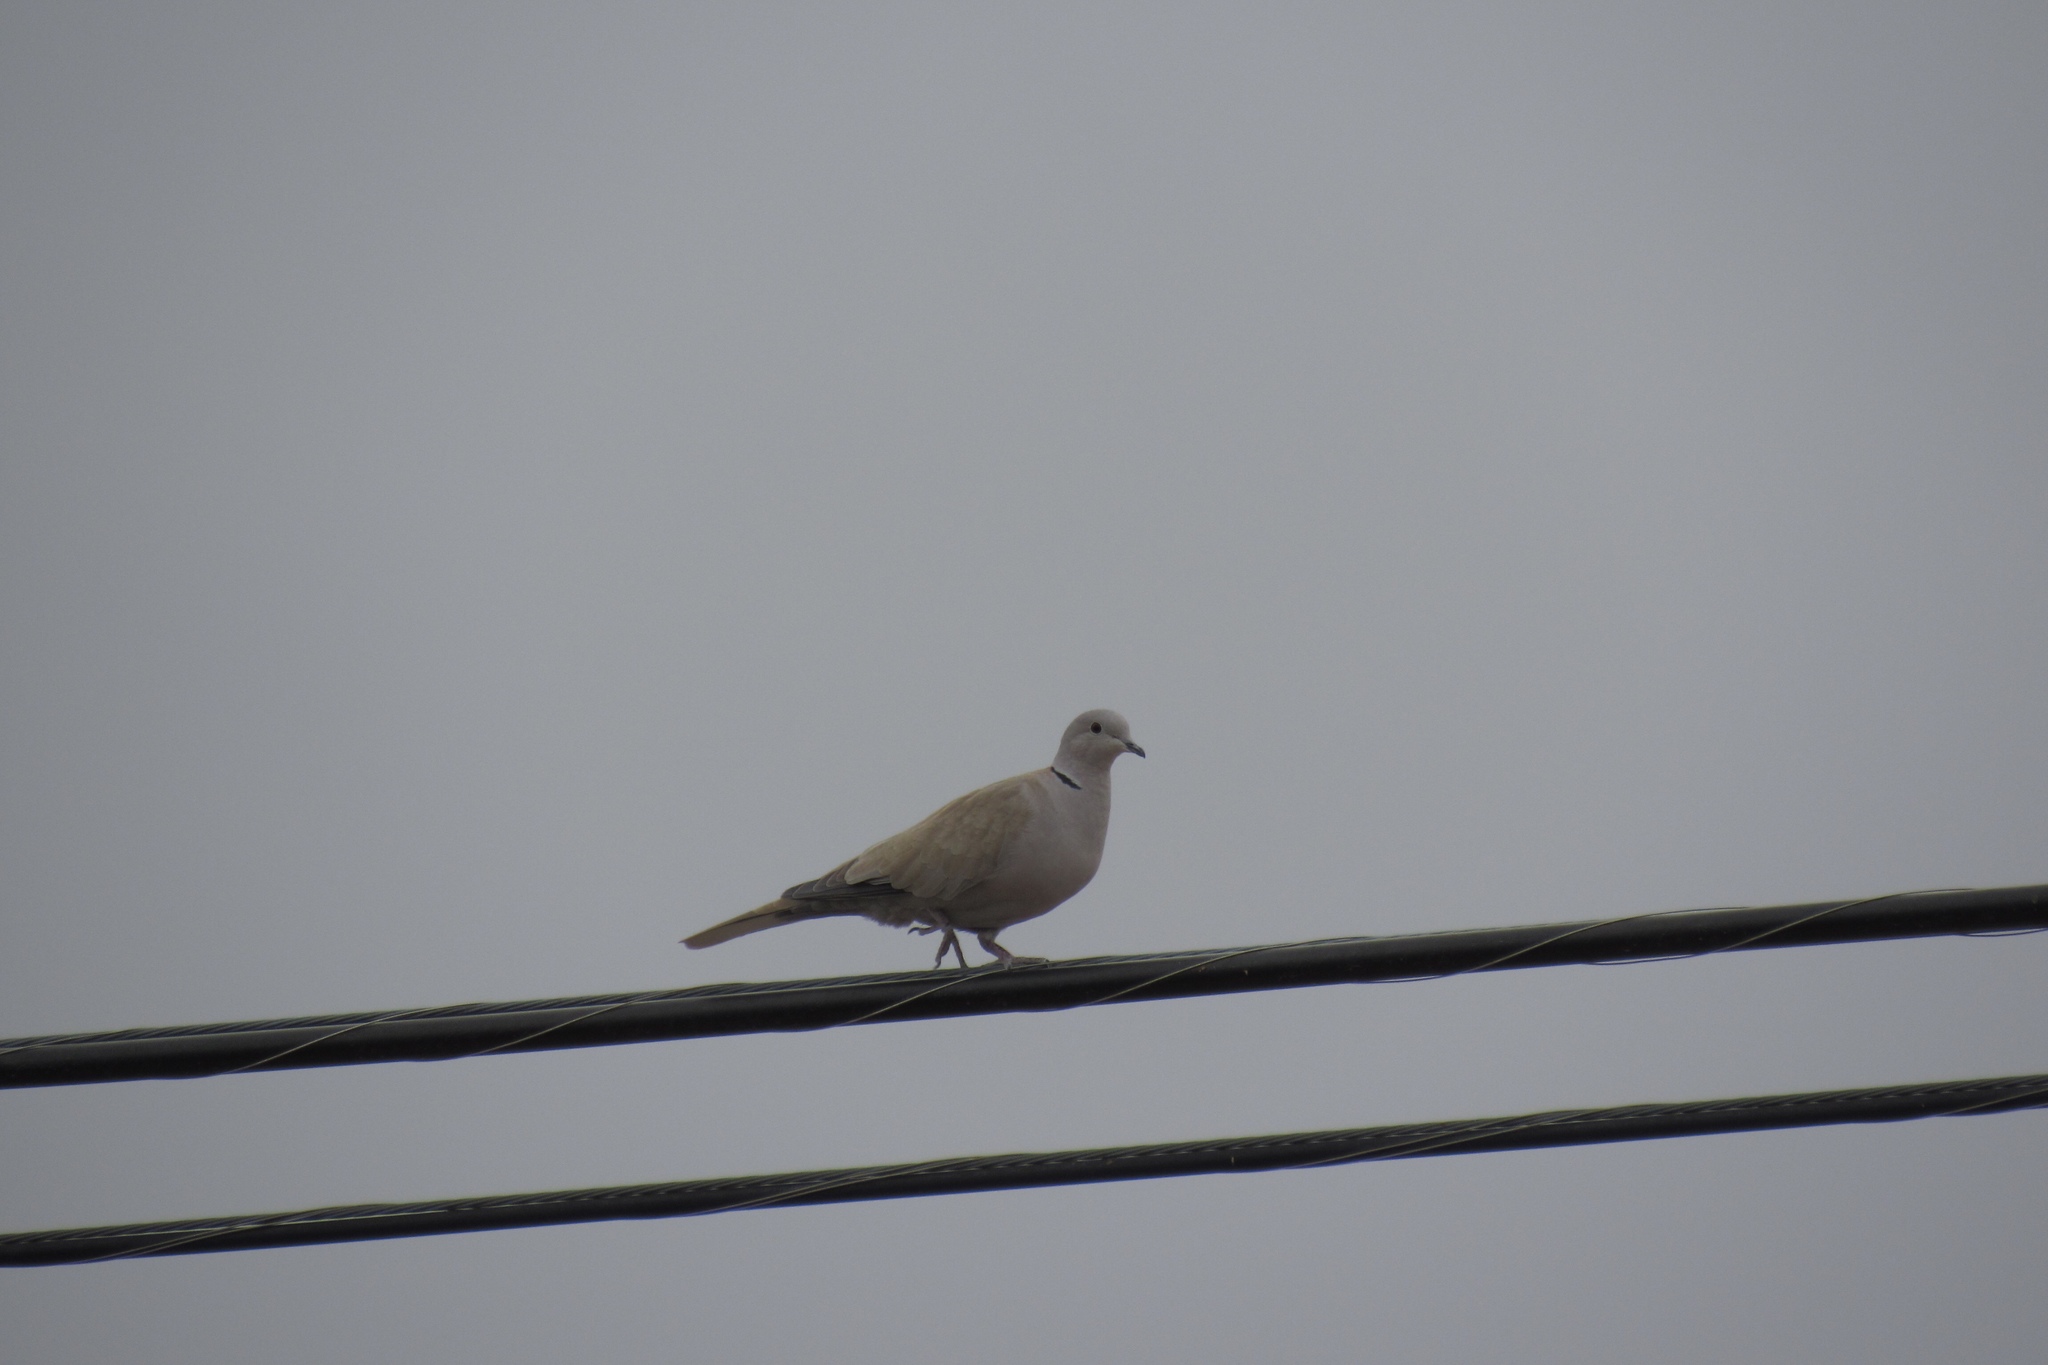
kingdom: Animalia
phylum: Chordata
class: Aves
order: Columbiformes
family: Columbidae
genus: Streptopelia
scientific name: Streptopelia decaocto
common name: Eurasian collared dove
